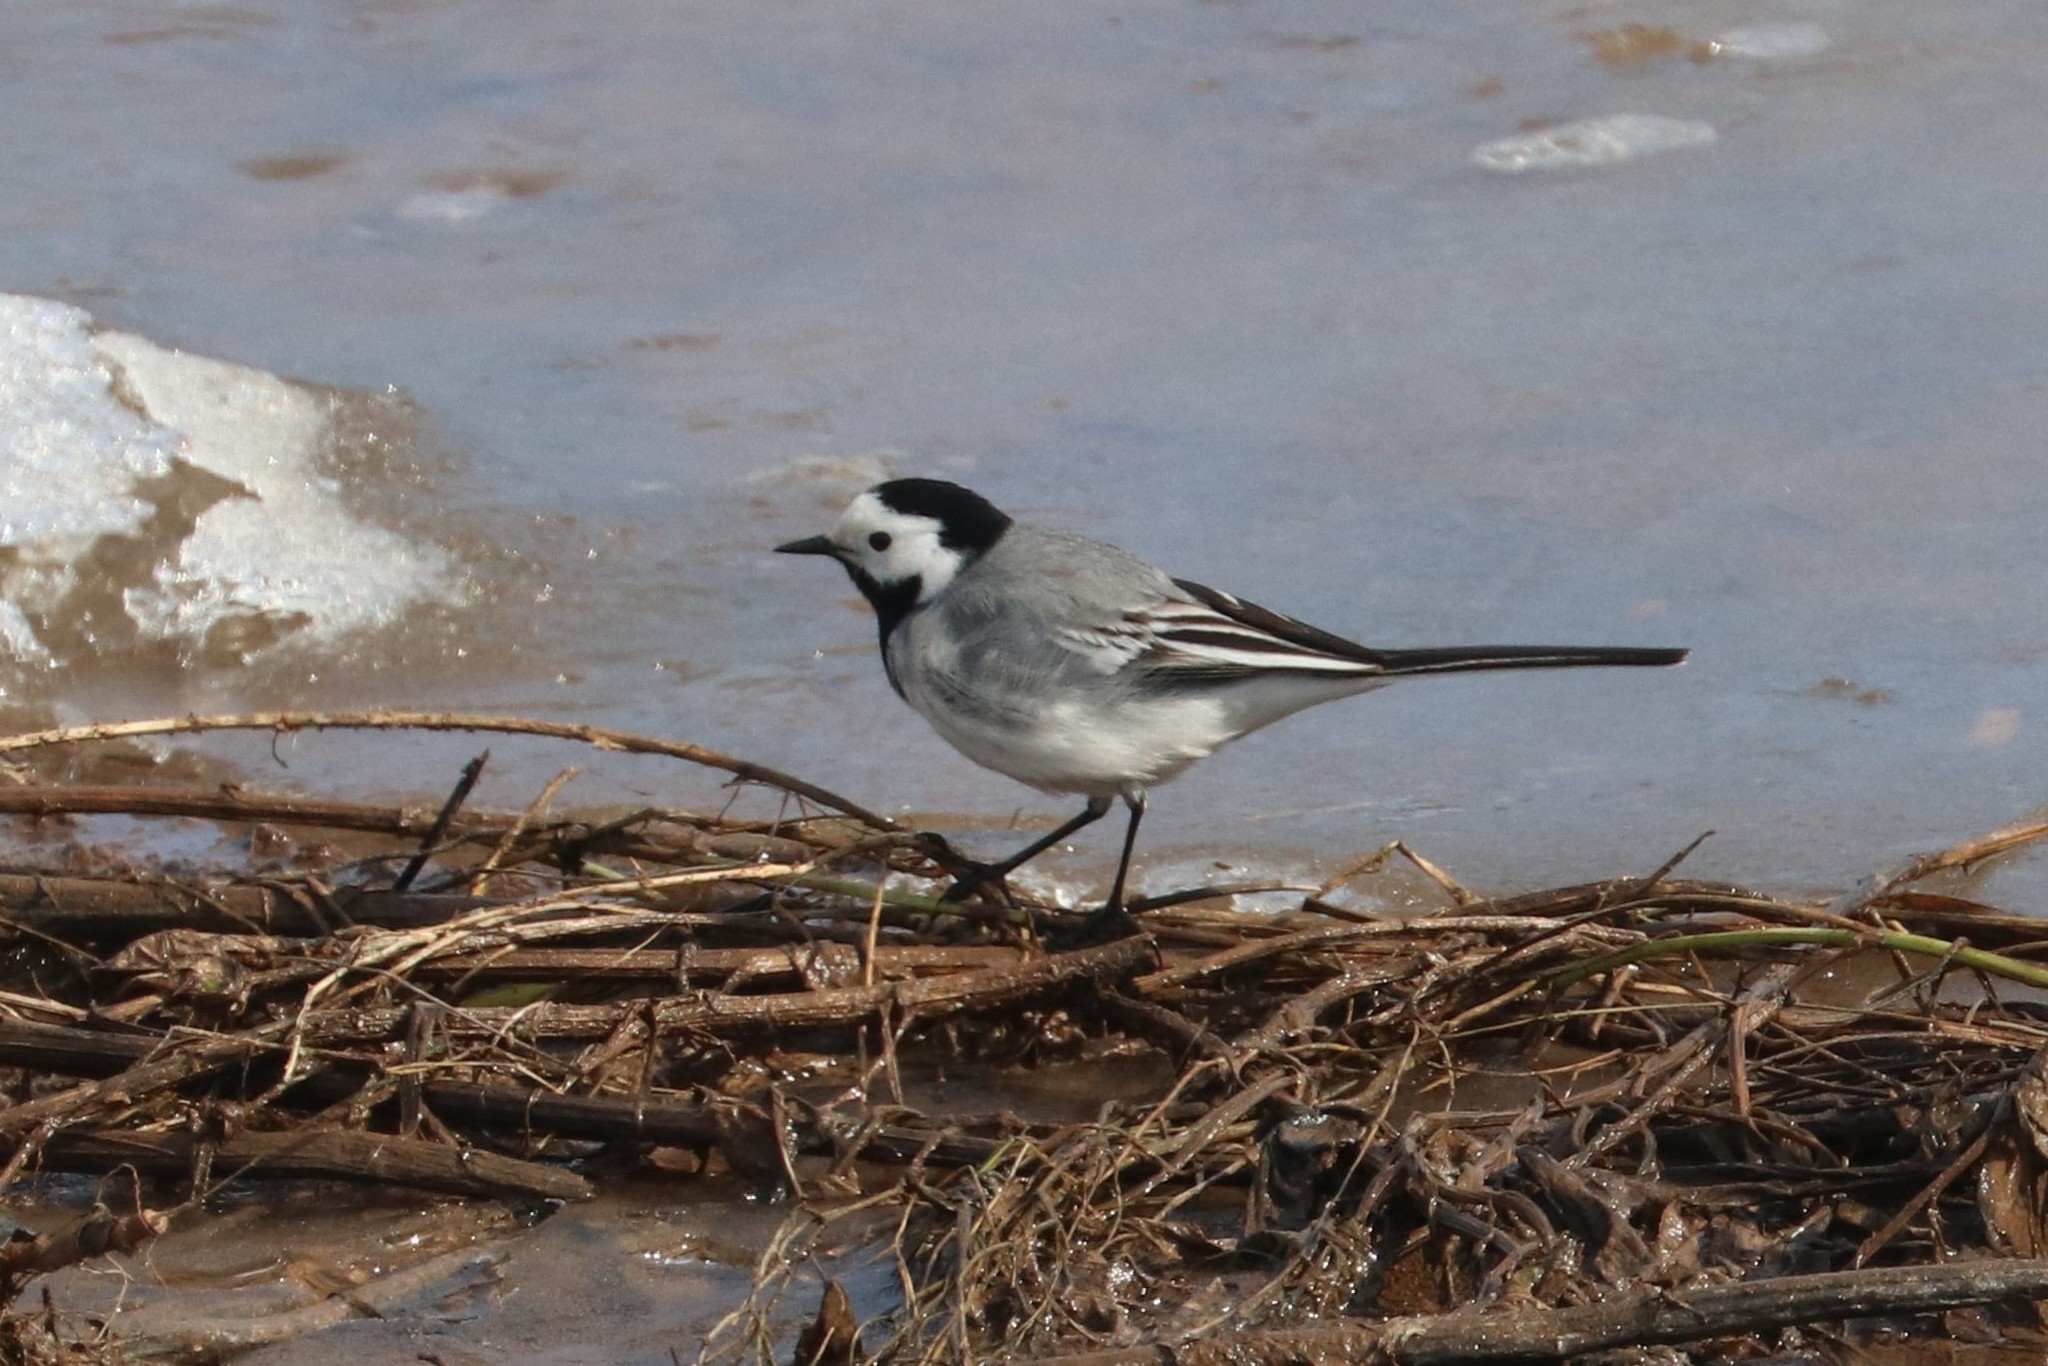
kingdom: Animalia
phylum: Chordata
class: Aves
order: Passeriformes
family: Motacillidae
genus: Motacilla
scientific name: Motacilla alba
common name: White wagtail
